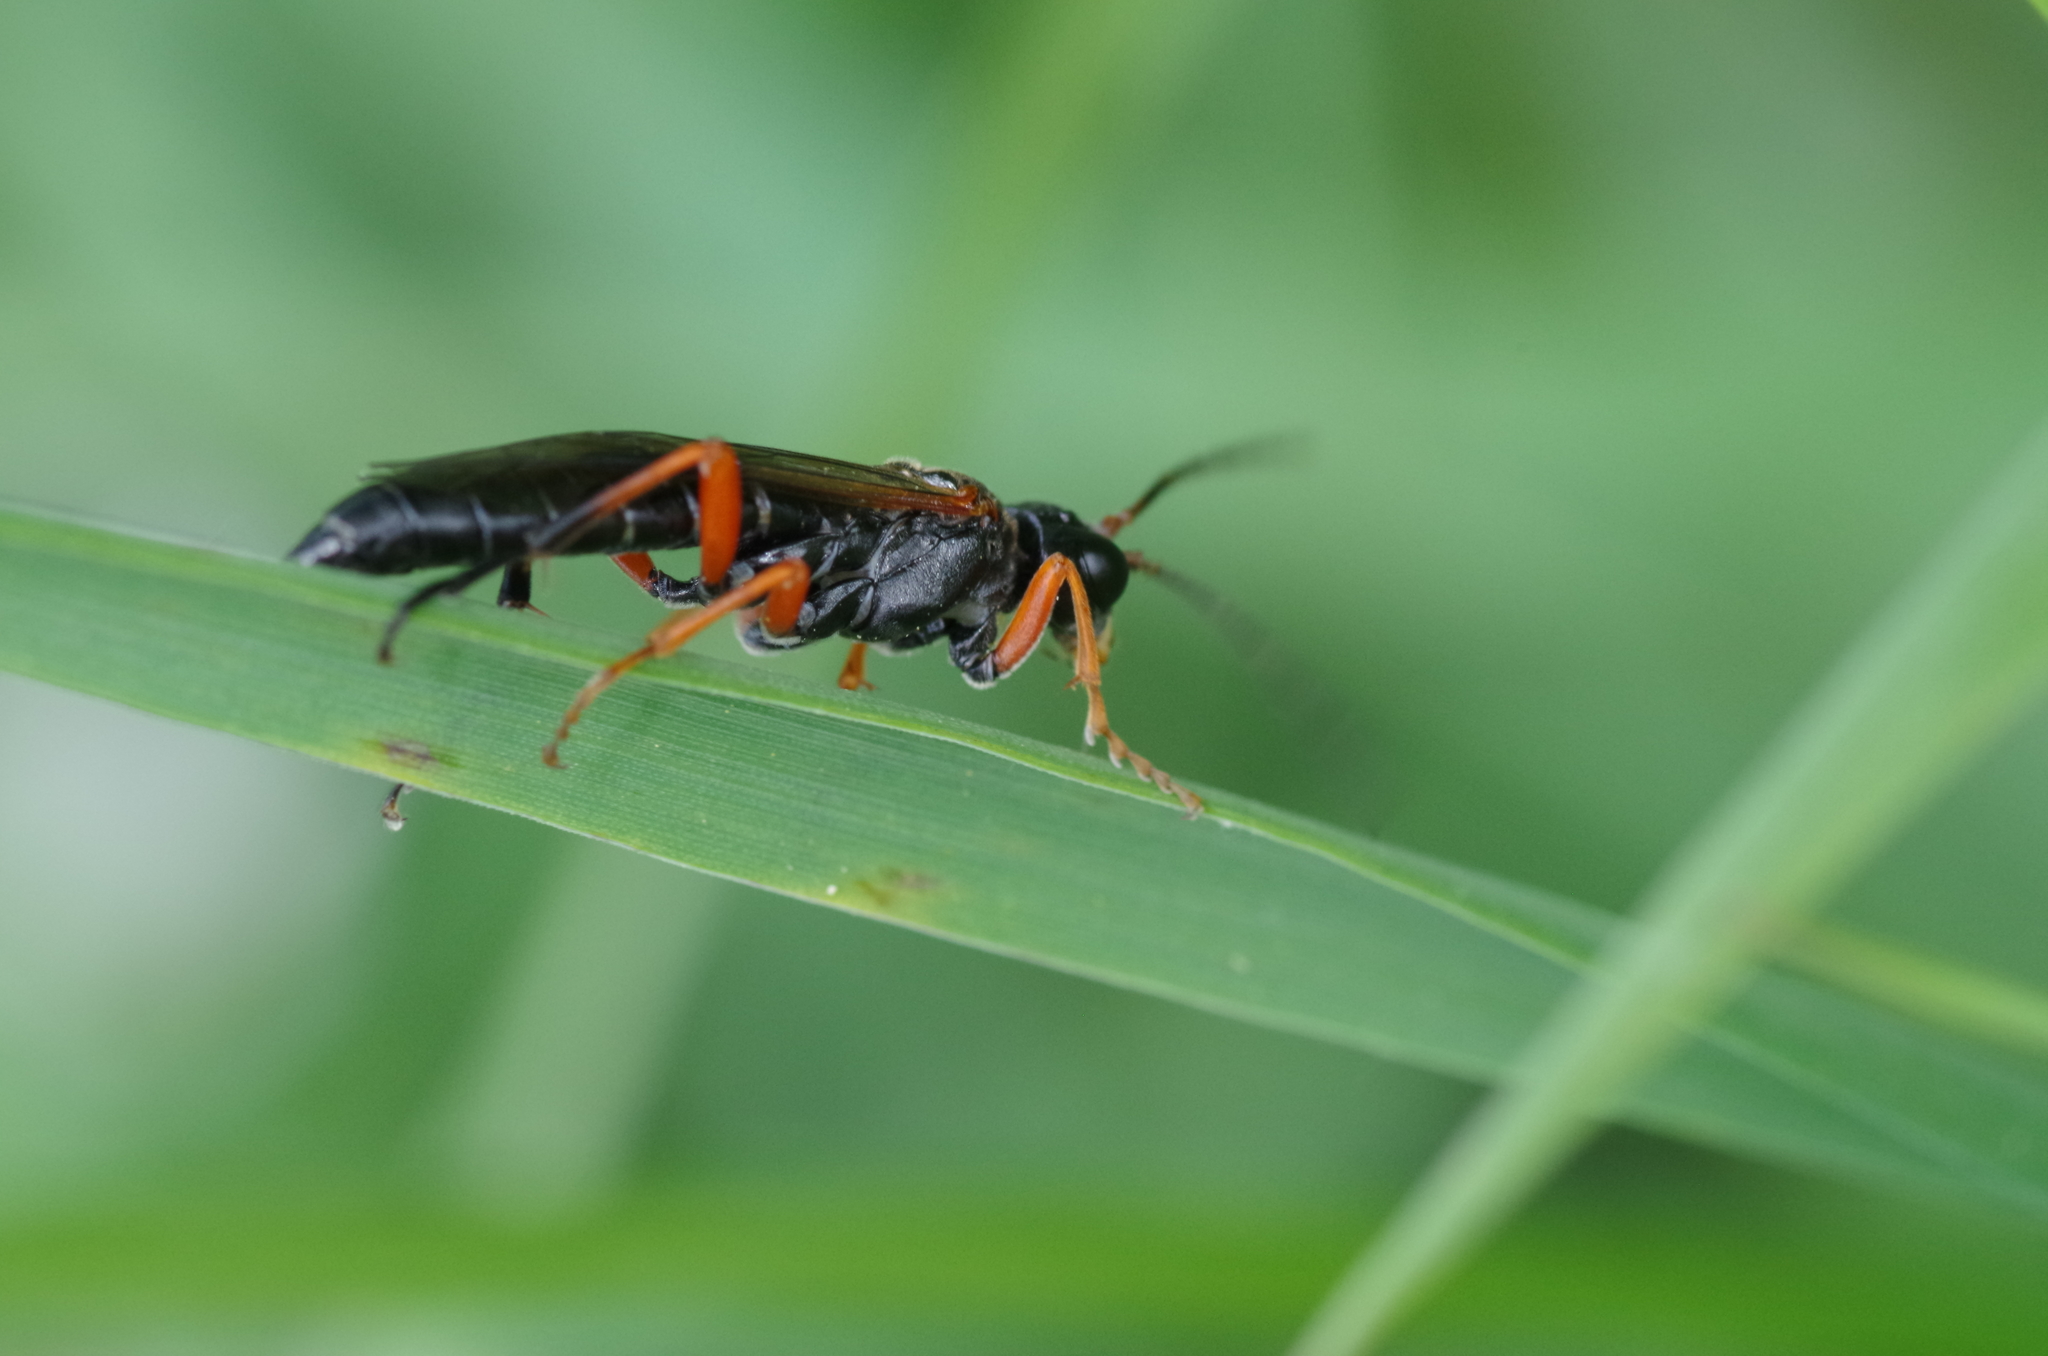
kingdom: Animalia
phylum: Arthropoda
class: Insecta
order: Hymenoptera
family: Tenthredinidae
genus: Tenthredo
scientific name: Tenthredo atra
